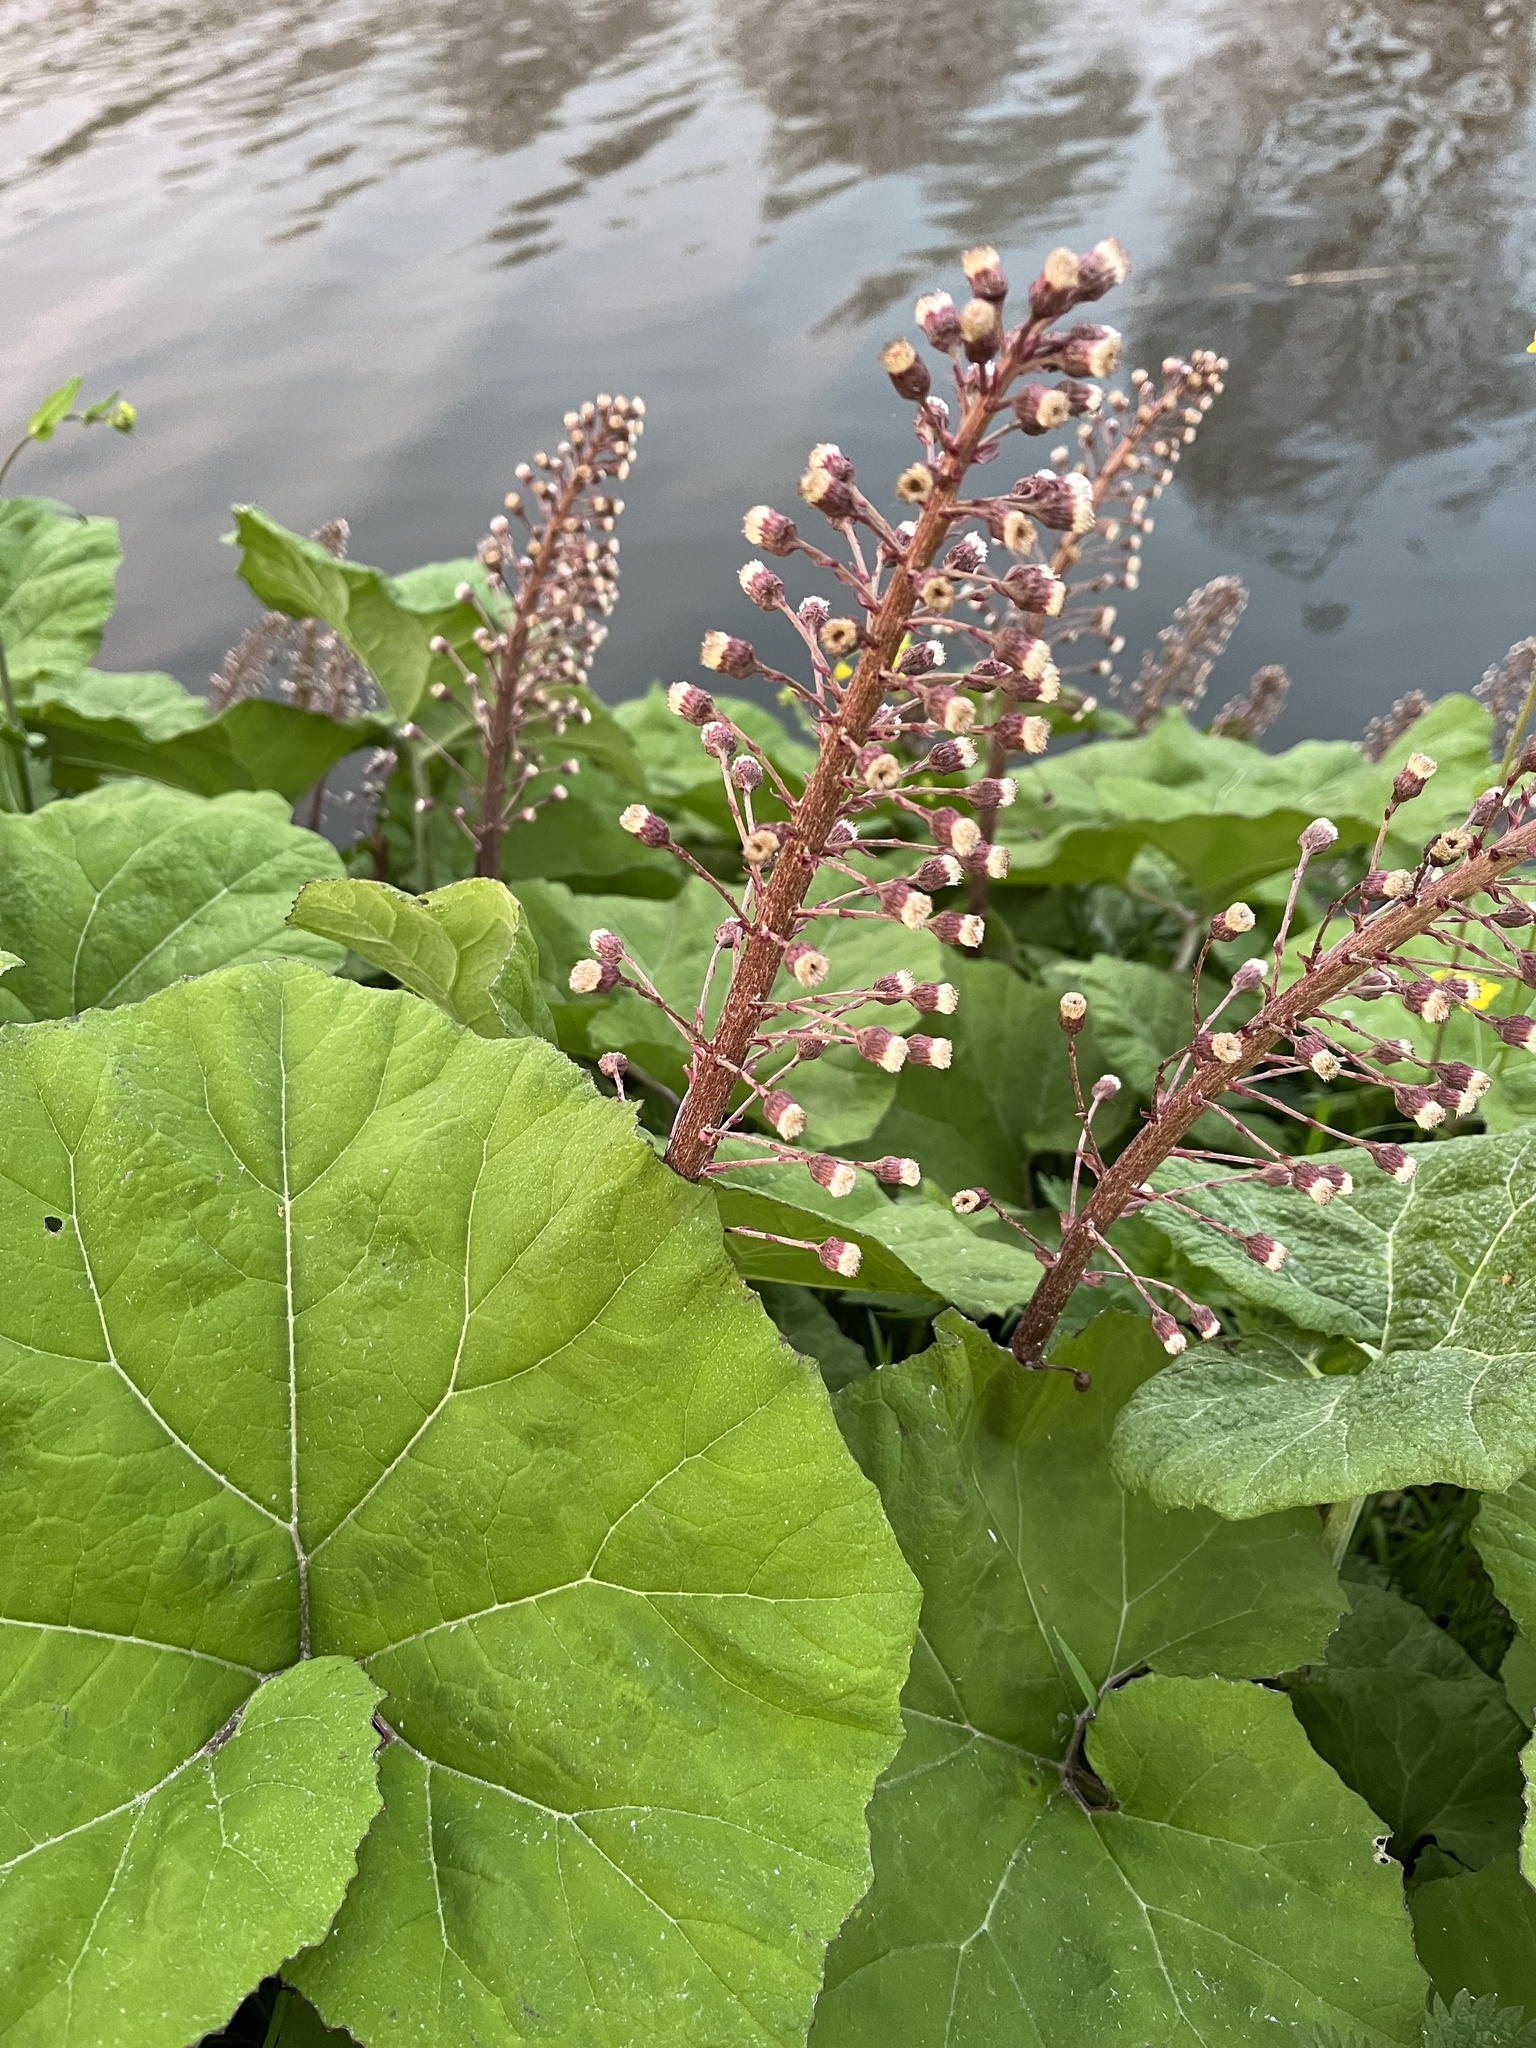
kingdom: Plantae
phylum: Tracheophyta
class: Magnoliopsida
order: Asterales
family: Asteraceae
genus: Petasites
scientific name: Petasites hybridus
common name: Butterbur
